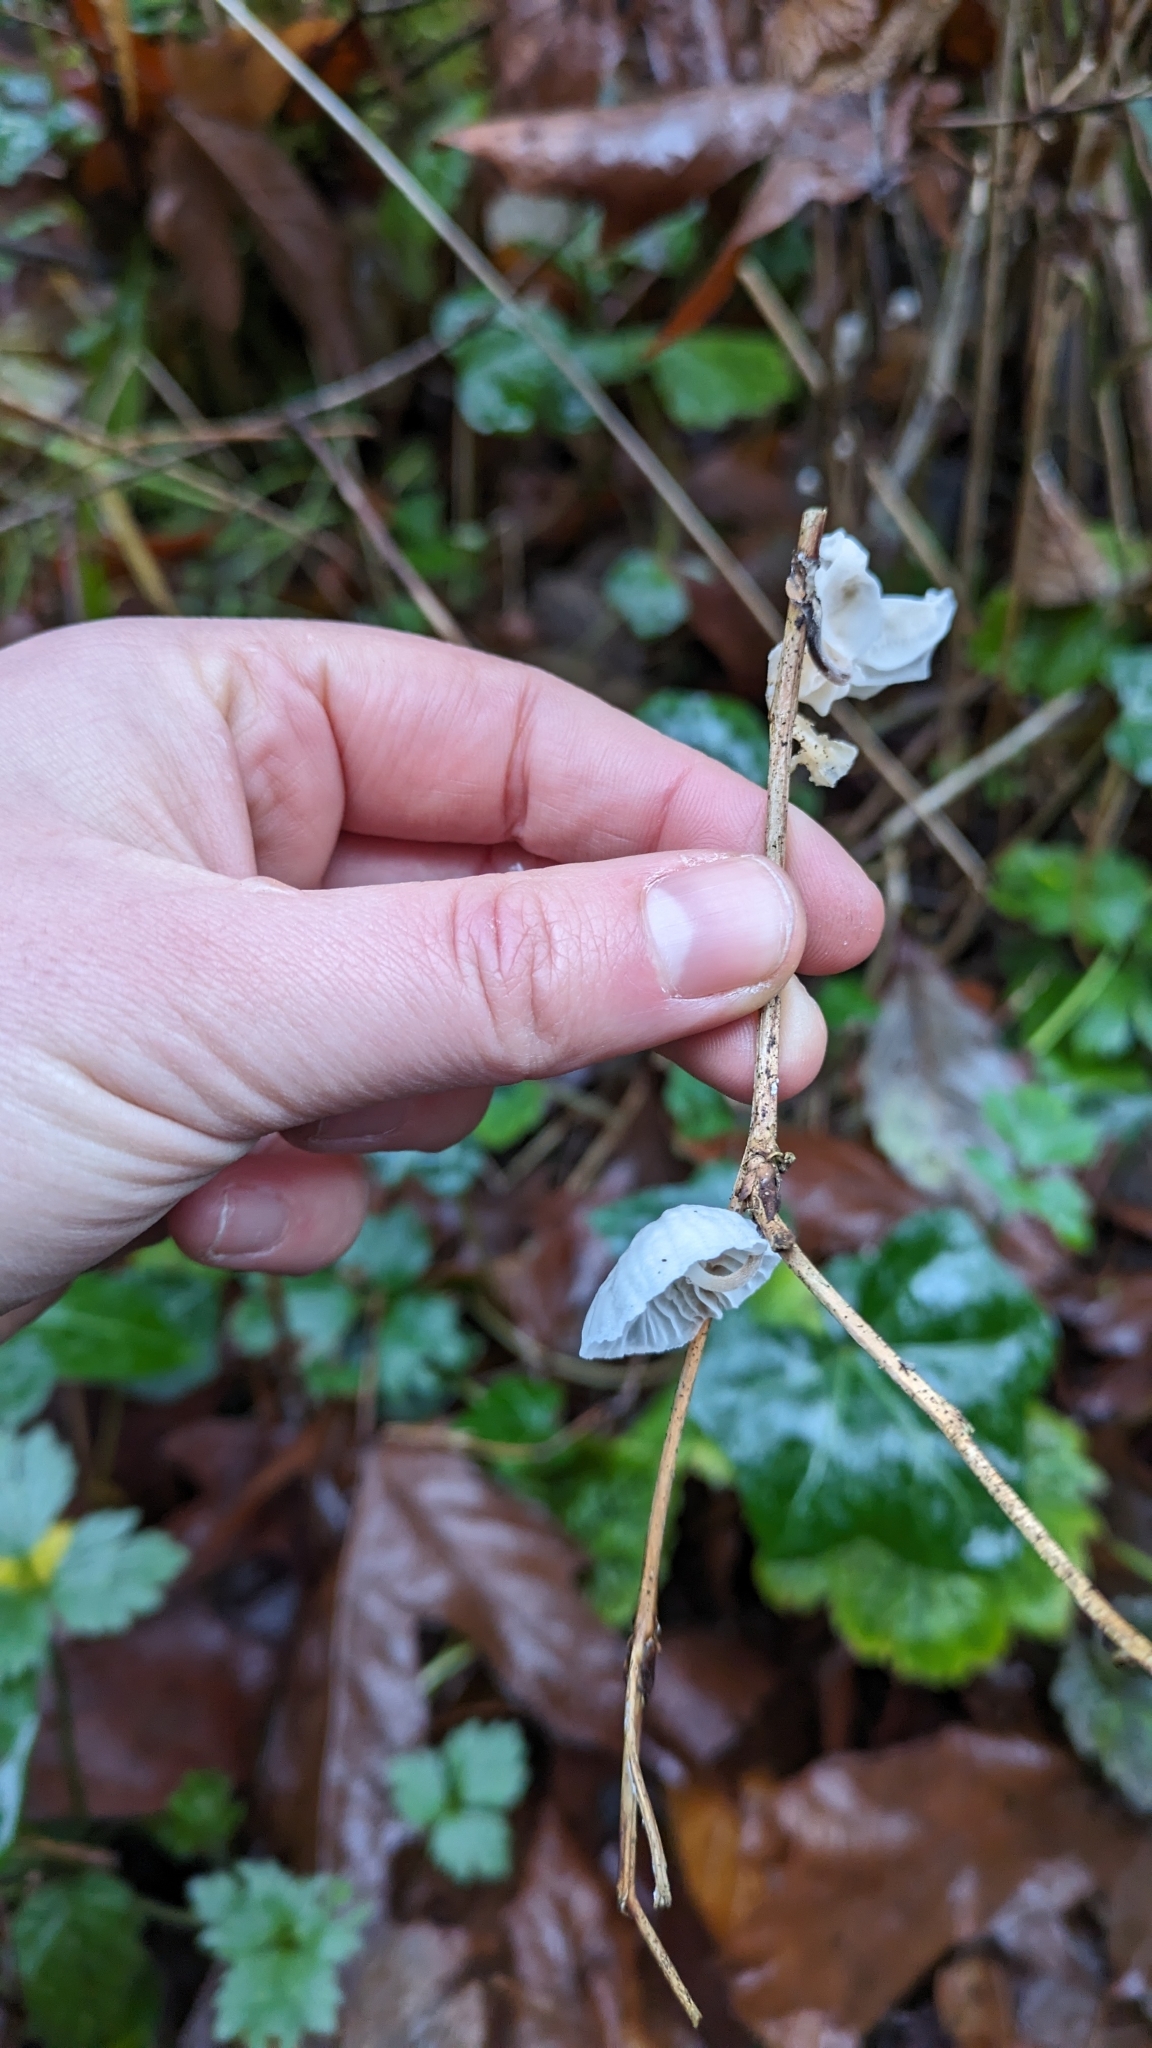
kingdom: Fungi
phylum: Basidiomycota
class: Agaricomycetes
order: Agaricales
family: Omphalotaceae
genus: Marasmiellus
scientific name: Marasmiellus candidus
